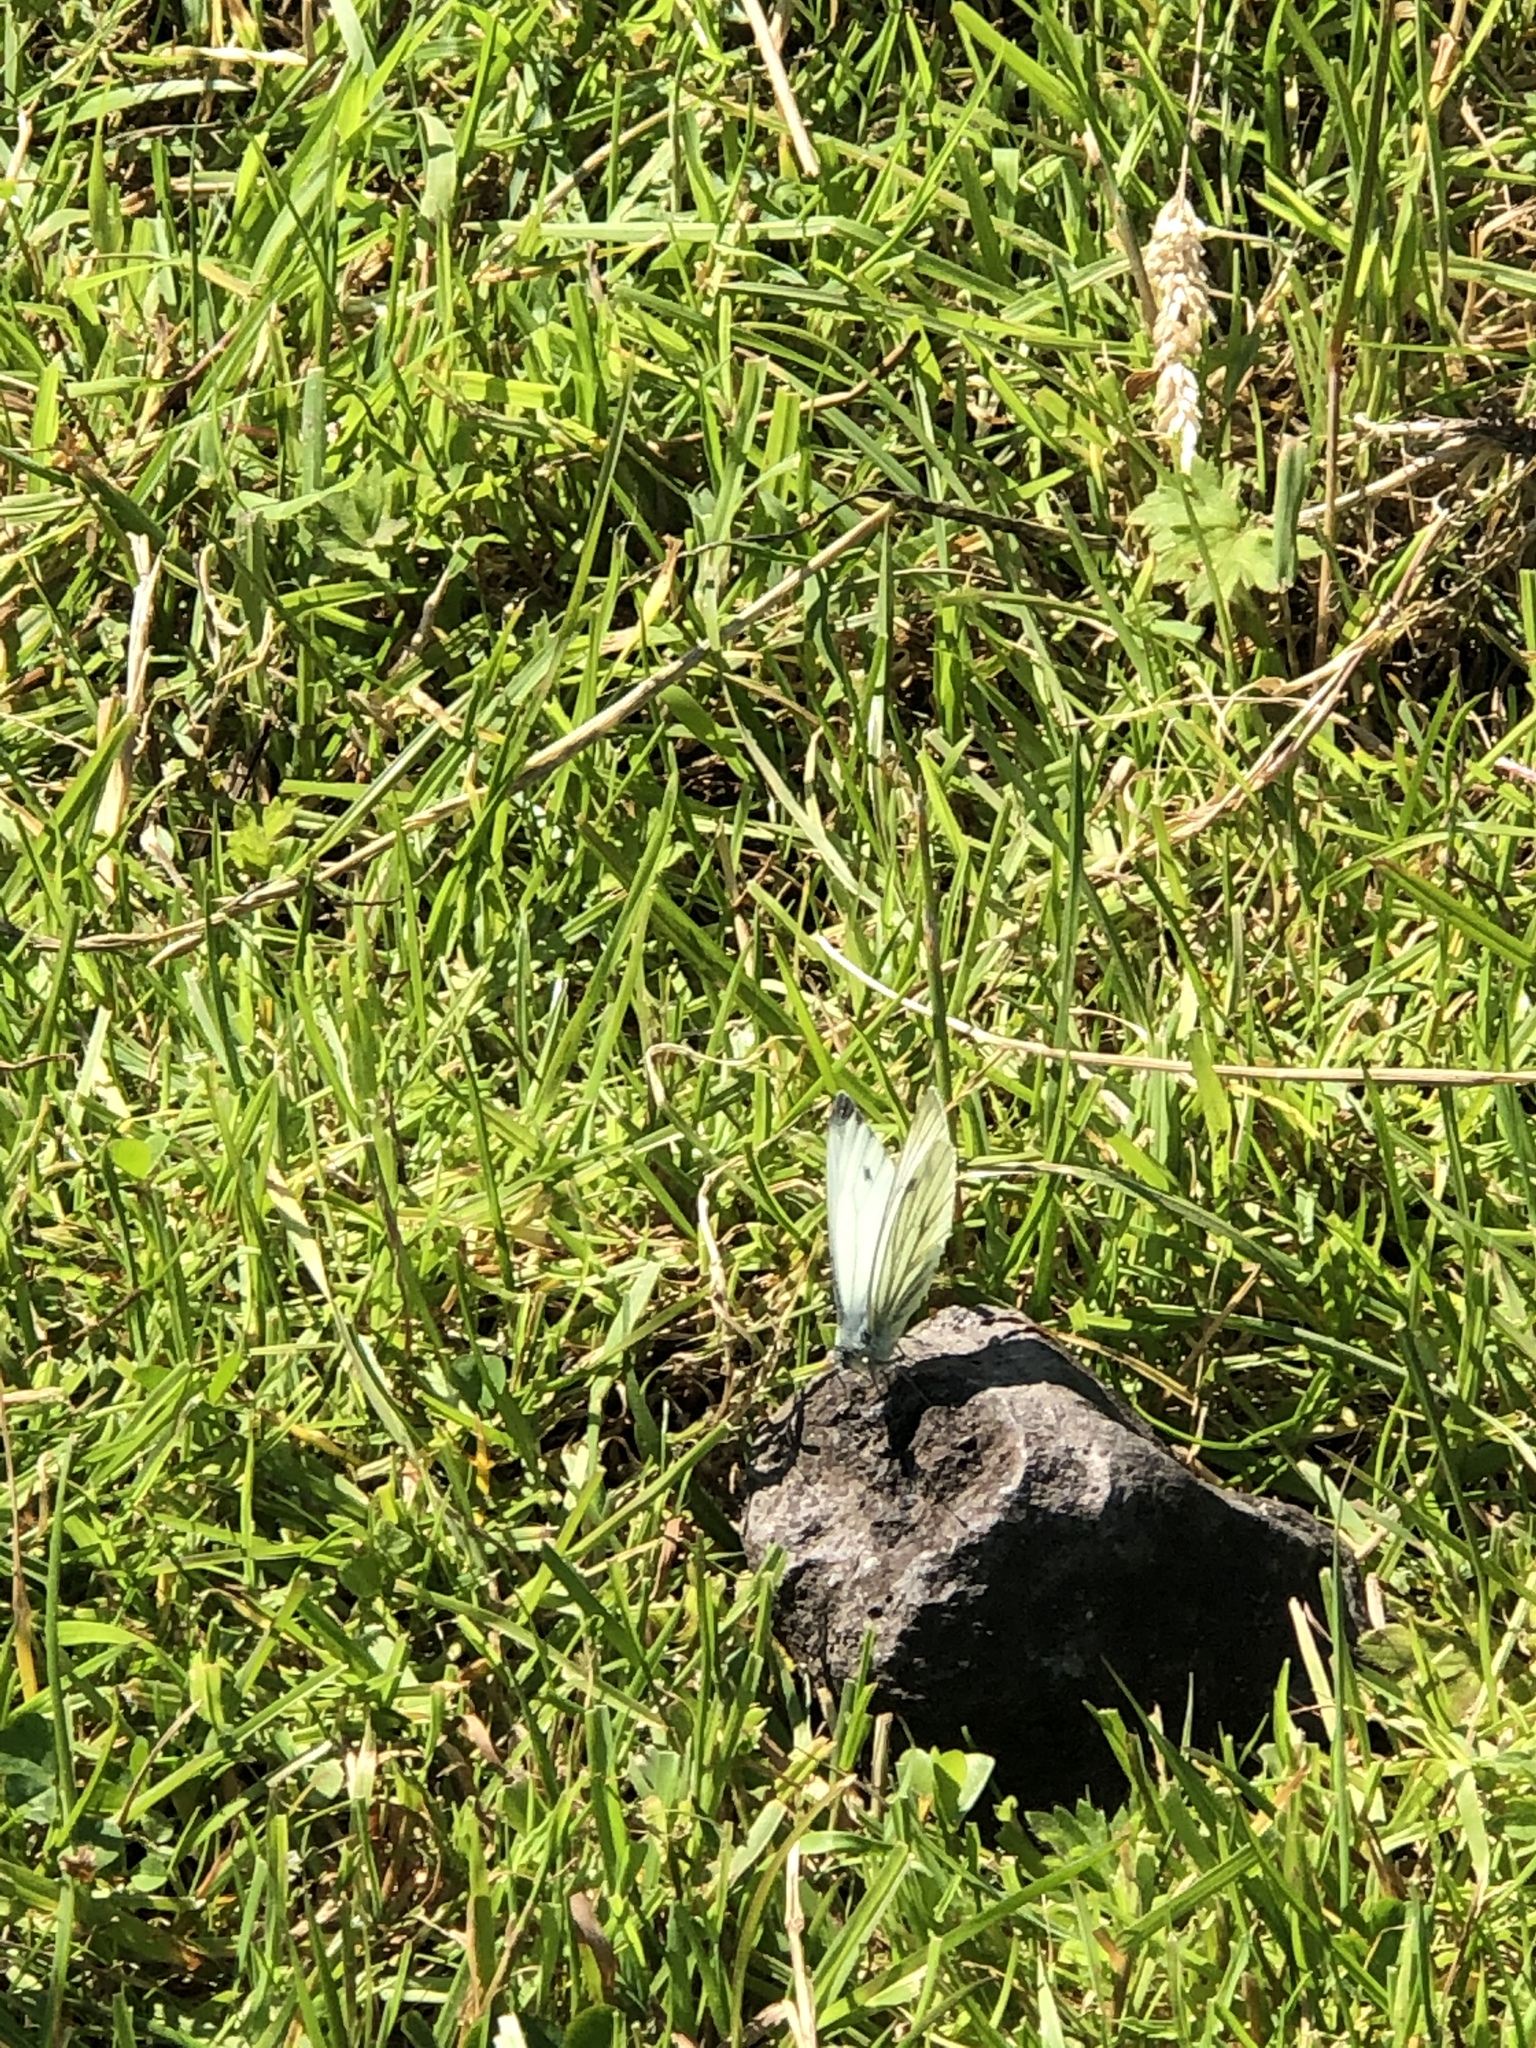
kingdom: Animalia
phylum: Arthropoda
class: Insecta
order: Lepidoptera
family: Pieridae
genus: Pieris
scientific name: Pieris napi
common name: Green-veined white
